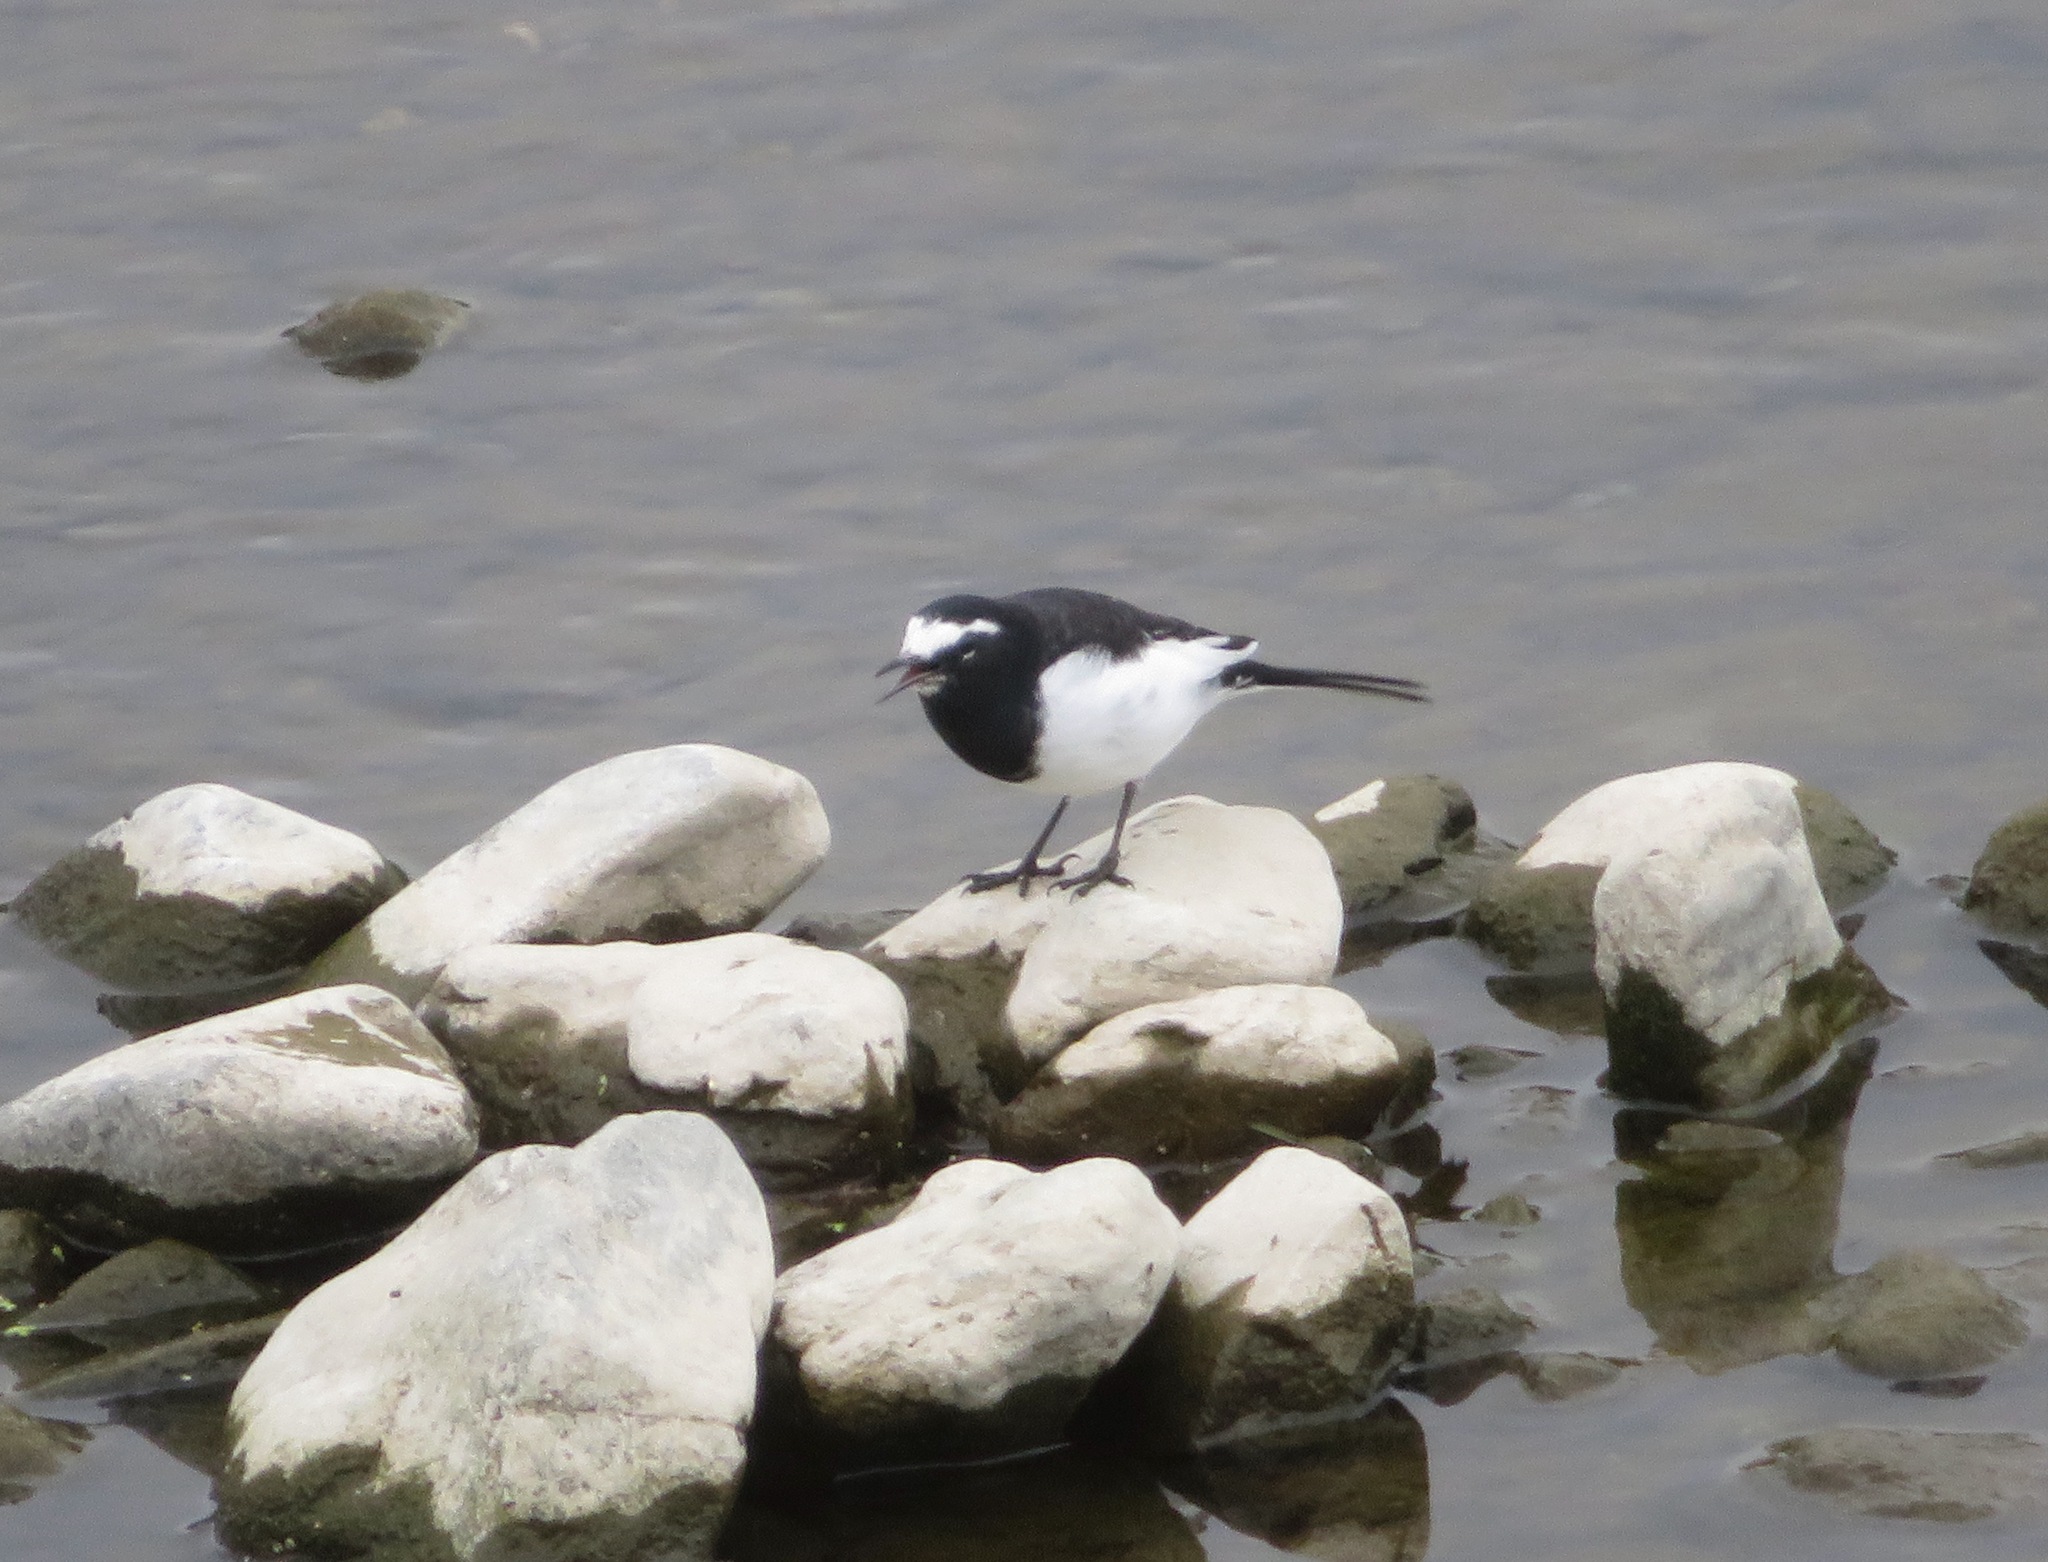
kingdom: Animalia
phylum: Chordata
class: Aves
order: Passeriformes
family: Motacillidae
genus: Motacilla
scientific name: Motacilla grandis
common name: Japanese wagtail
